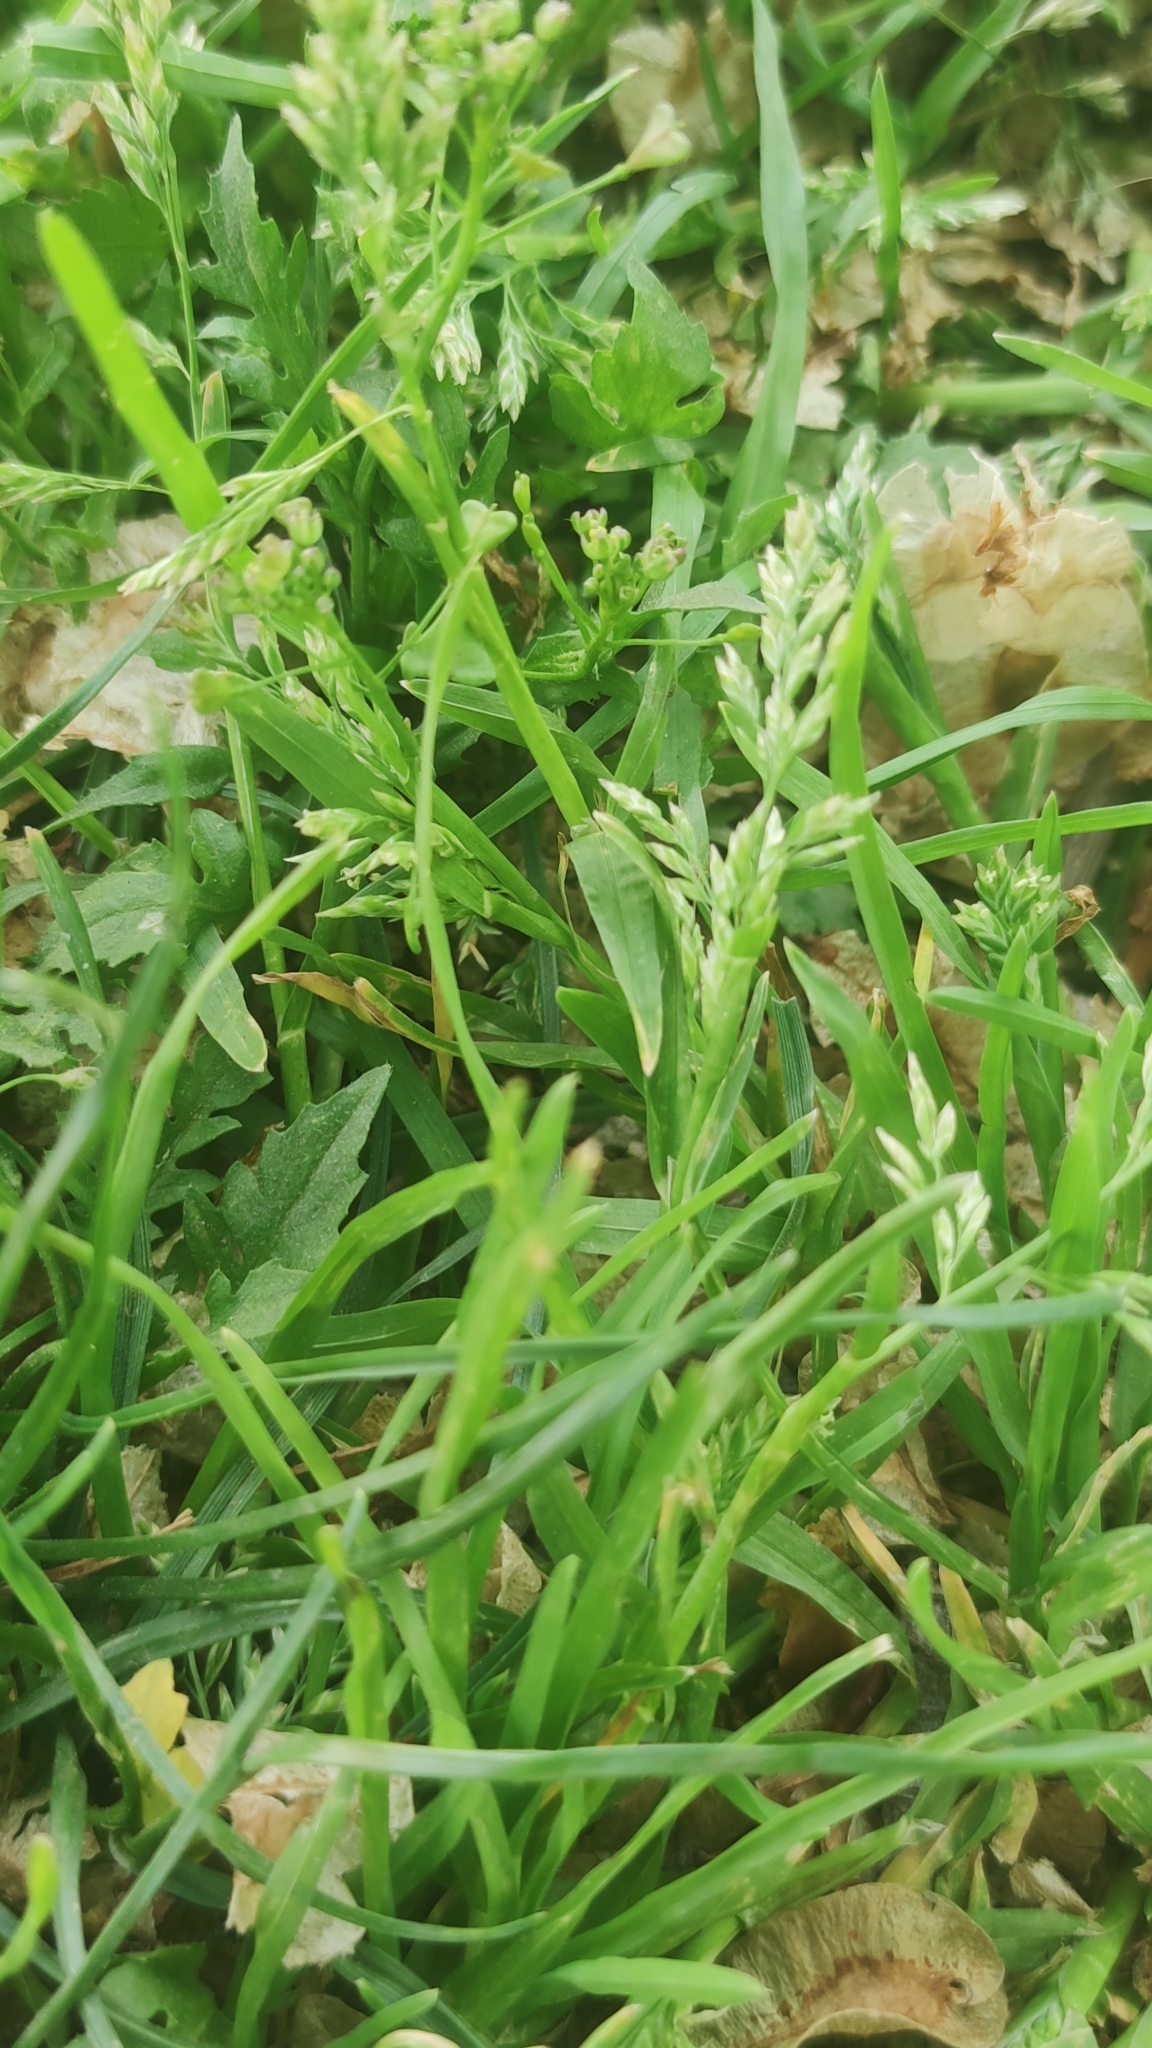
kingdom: Plantae
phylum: Tracheophyta
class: Liliopsida
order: Poales
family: Poaceae
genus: Poa
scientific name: Poa annua
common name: Annual bluegrass
